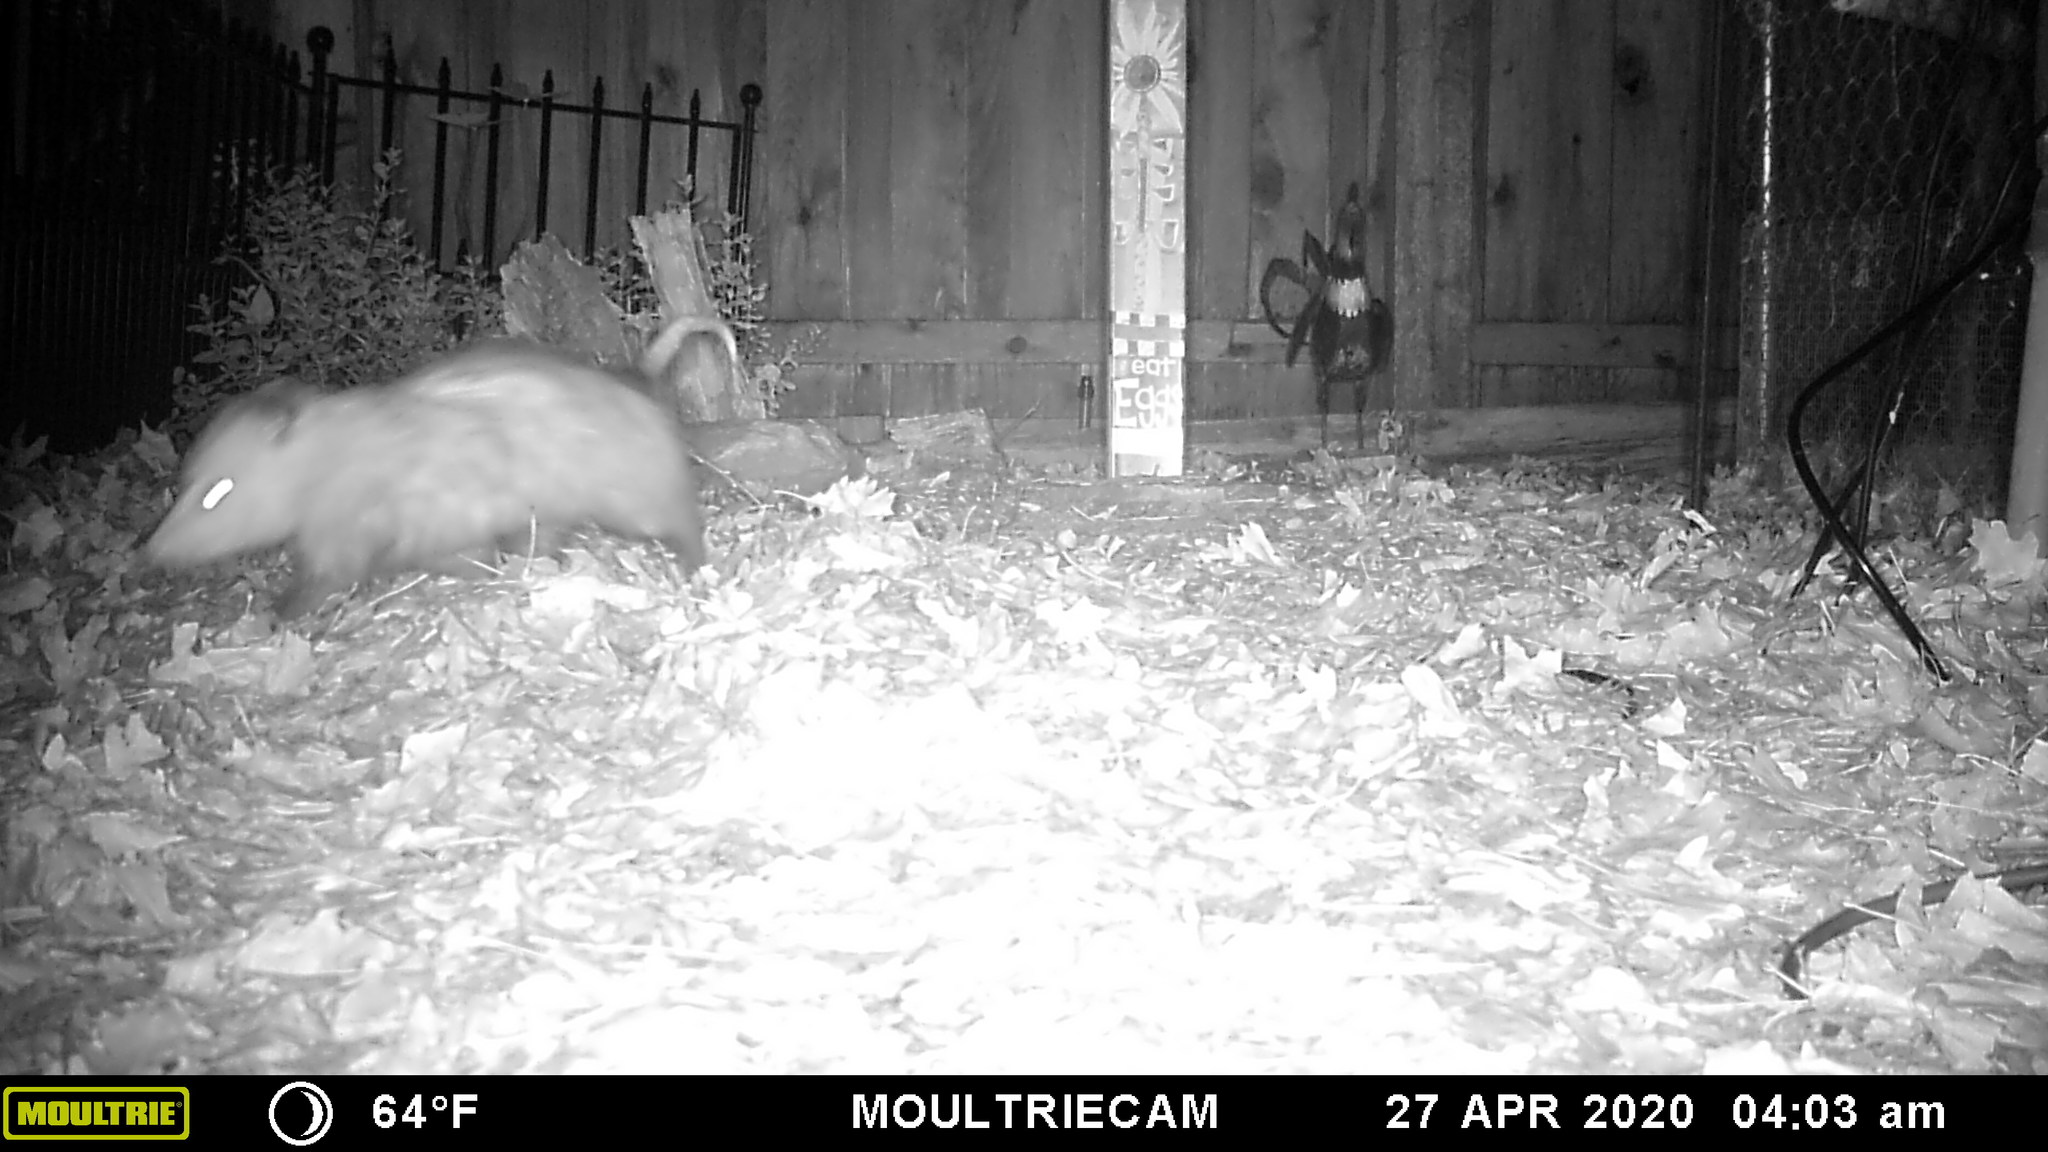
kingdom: Animalia
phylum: Chordata
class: Mammalia
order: Didelphimorphia
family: Didelphidae
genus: Didelphis
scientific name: Didelphis virginiana
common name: Virginia opossum
